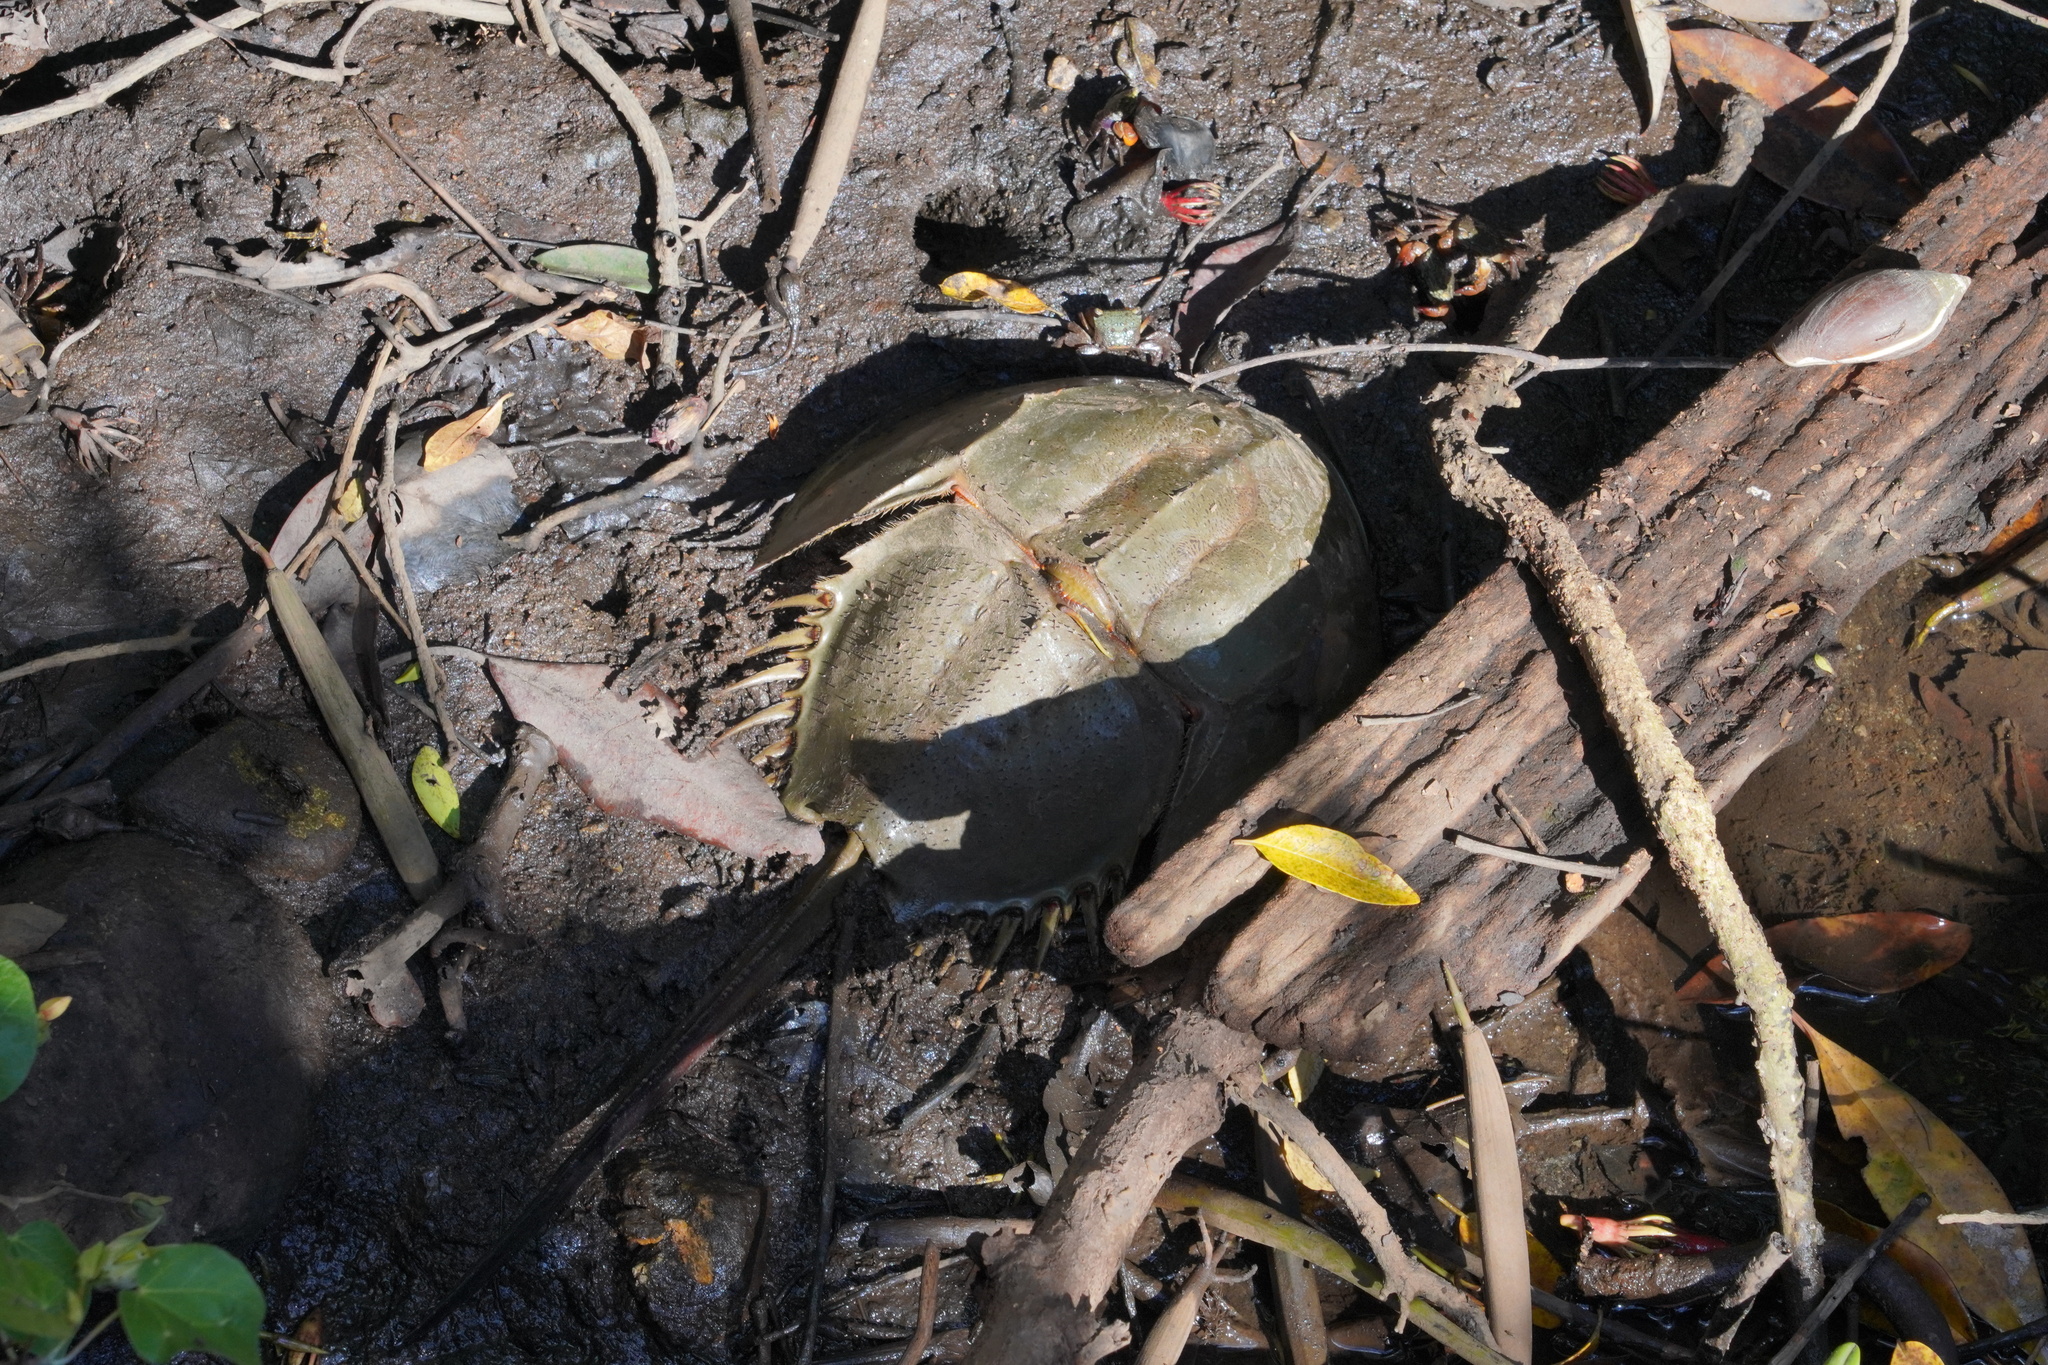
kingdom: Animalia
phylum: Arthropoda
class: Merostomata
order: Xiphosurida
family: Limulidae
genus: Tachypleus
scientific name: Tachypleus tridentatus
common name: Tri-spine horseshoe crab
